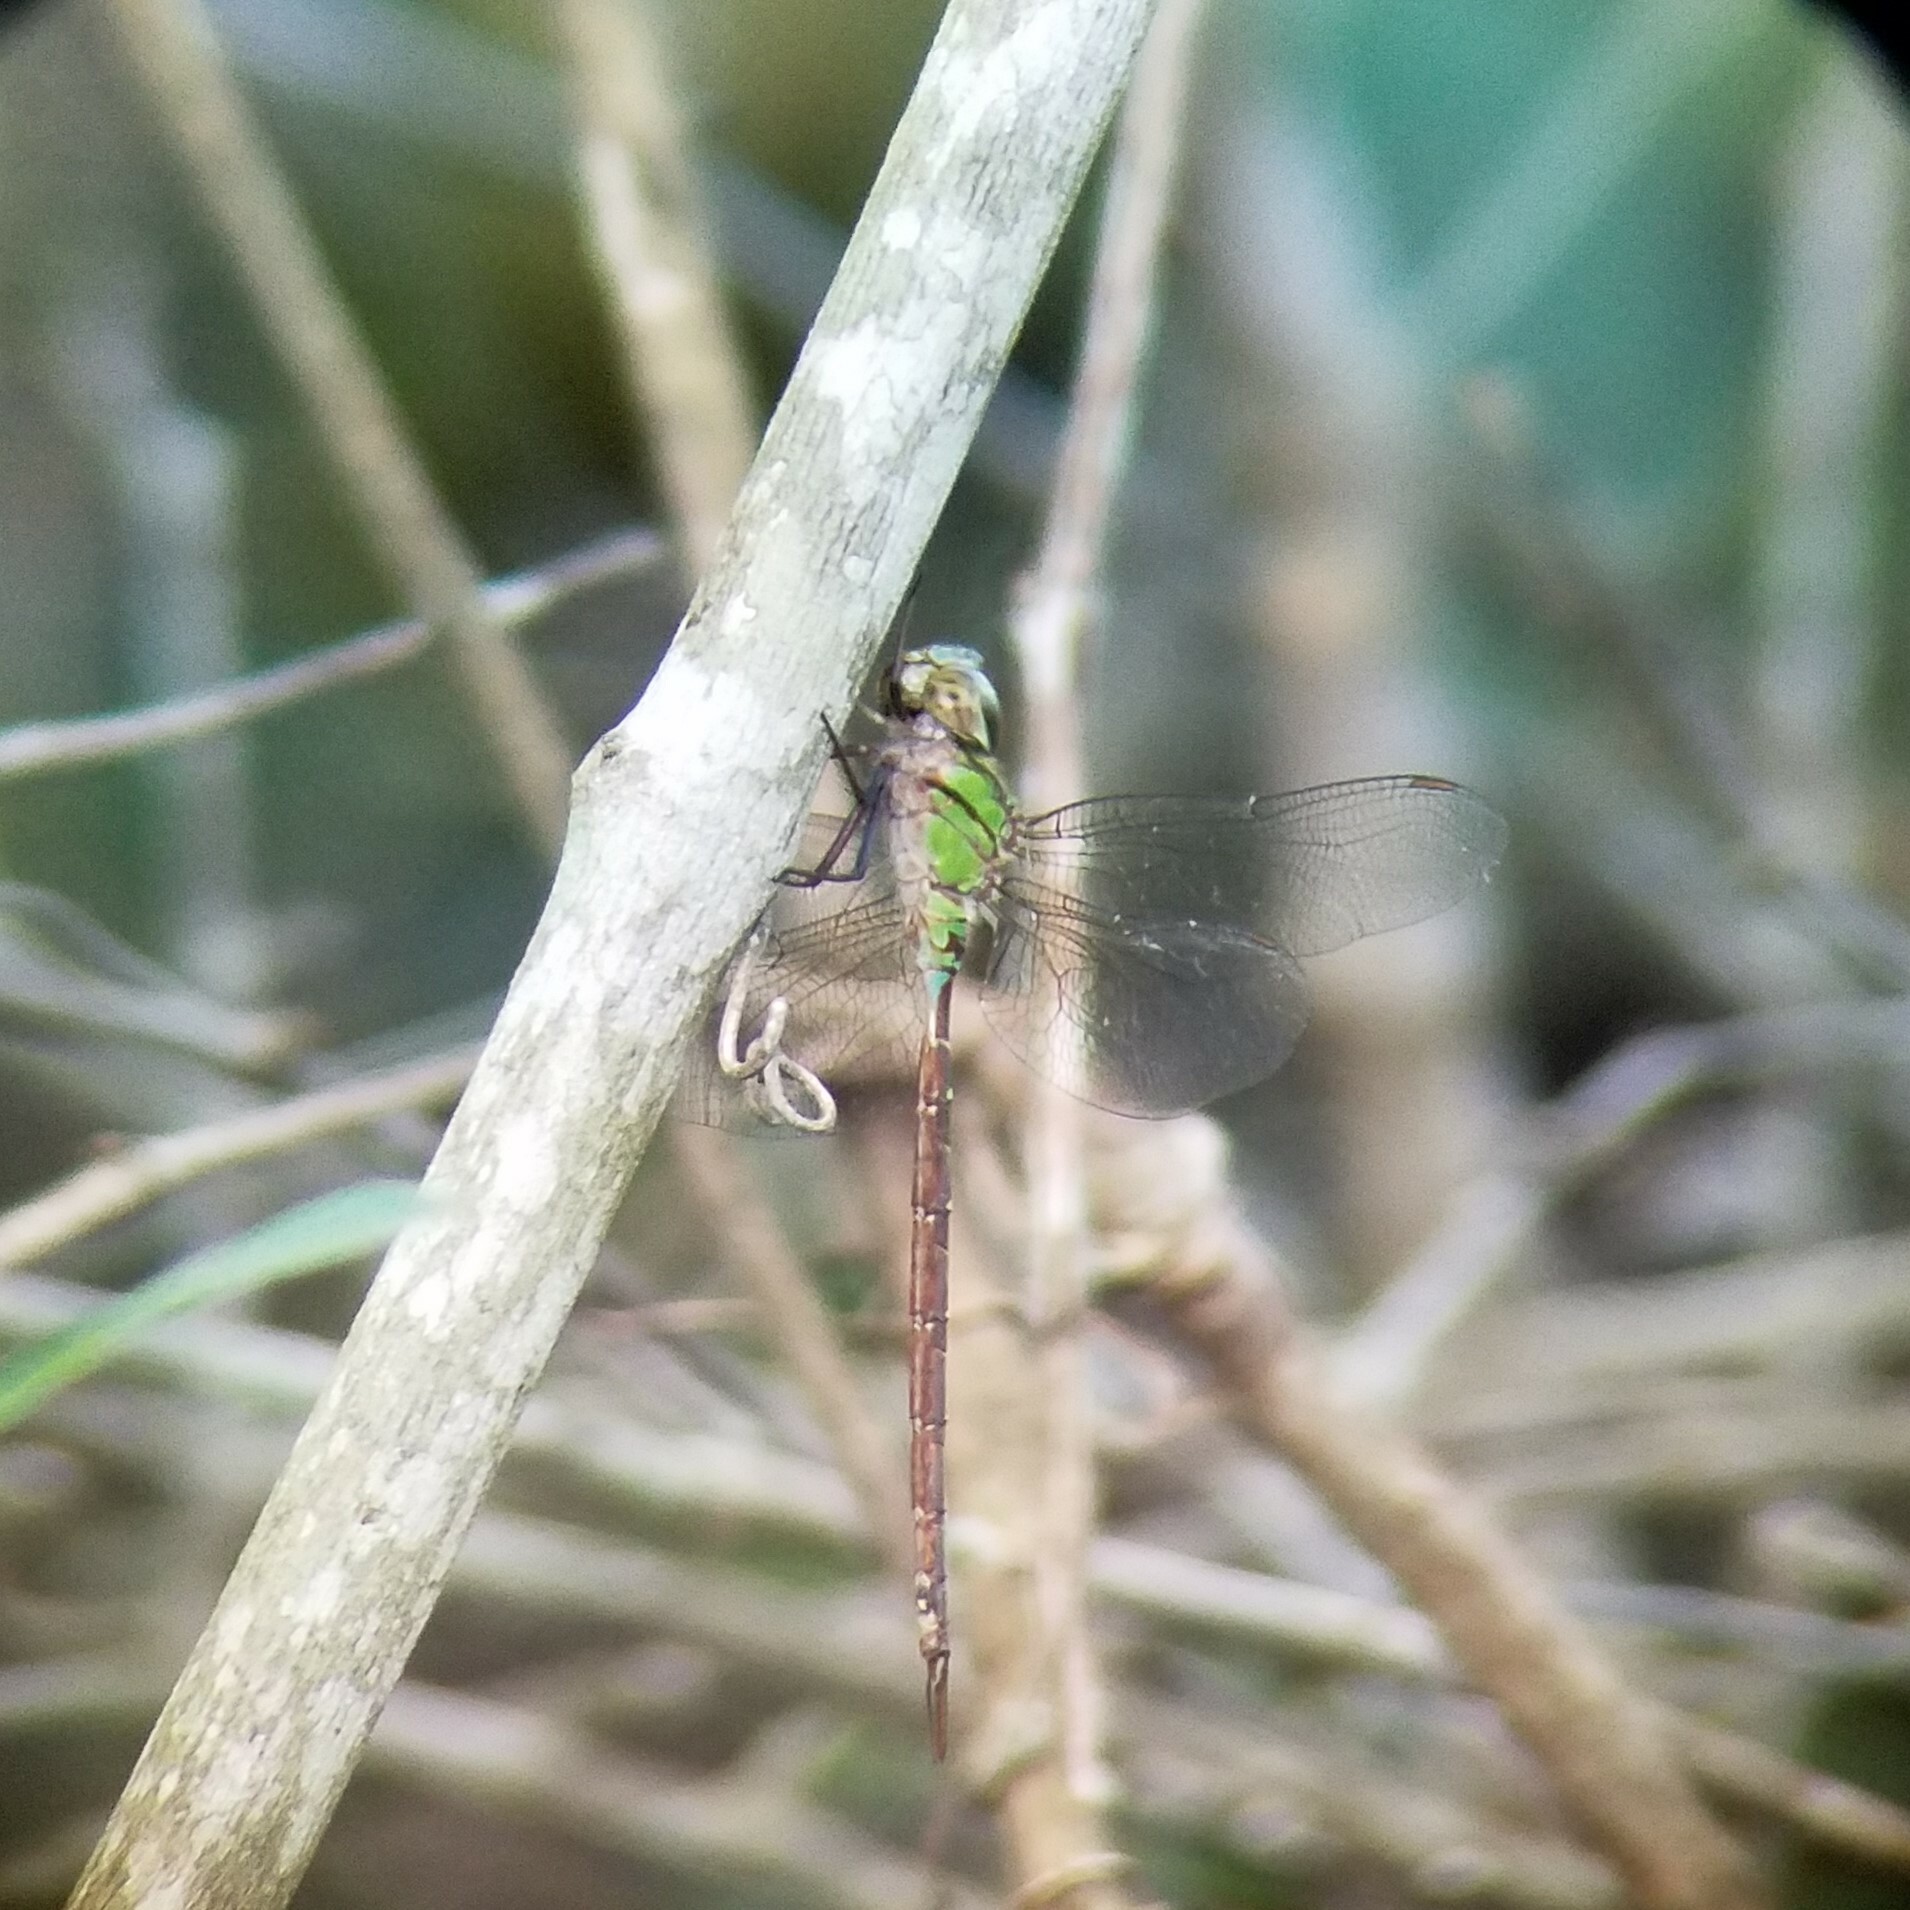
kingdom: Animalia
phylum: Arthropoda
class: Insecta
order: Odonata
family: Aeshnidae
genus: Triacanthagyna
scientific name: Triacanthagyna trifida
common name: Phantom darner
